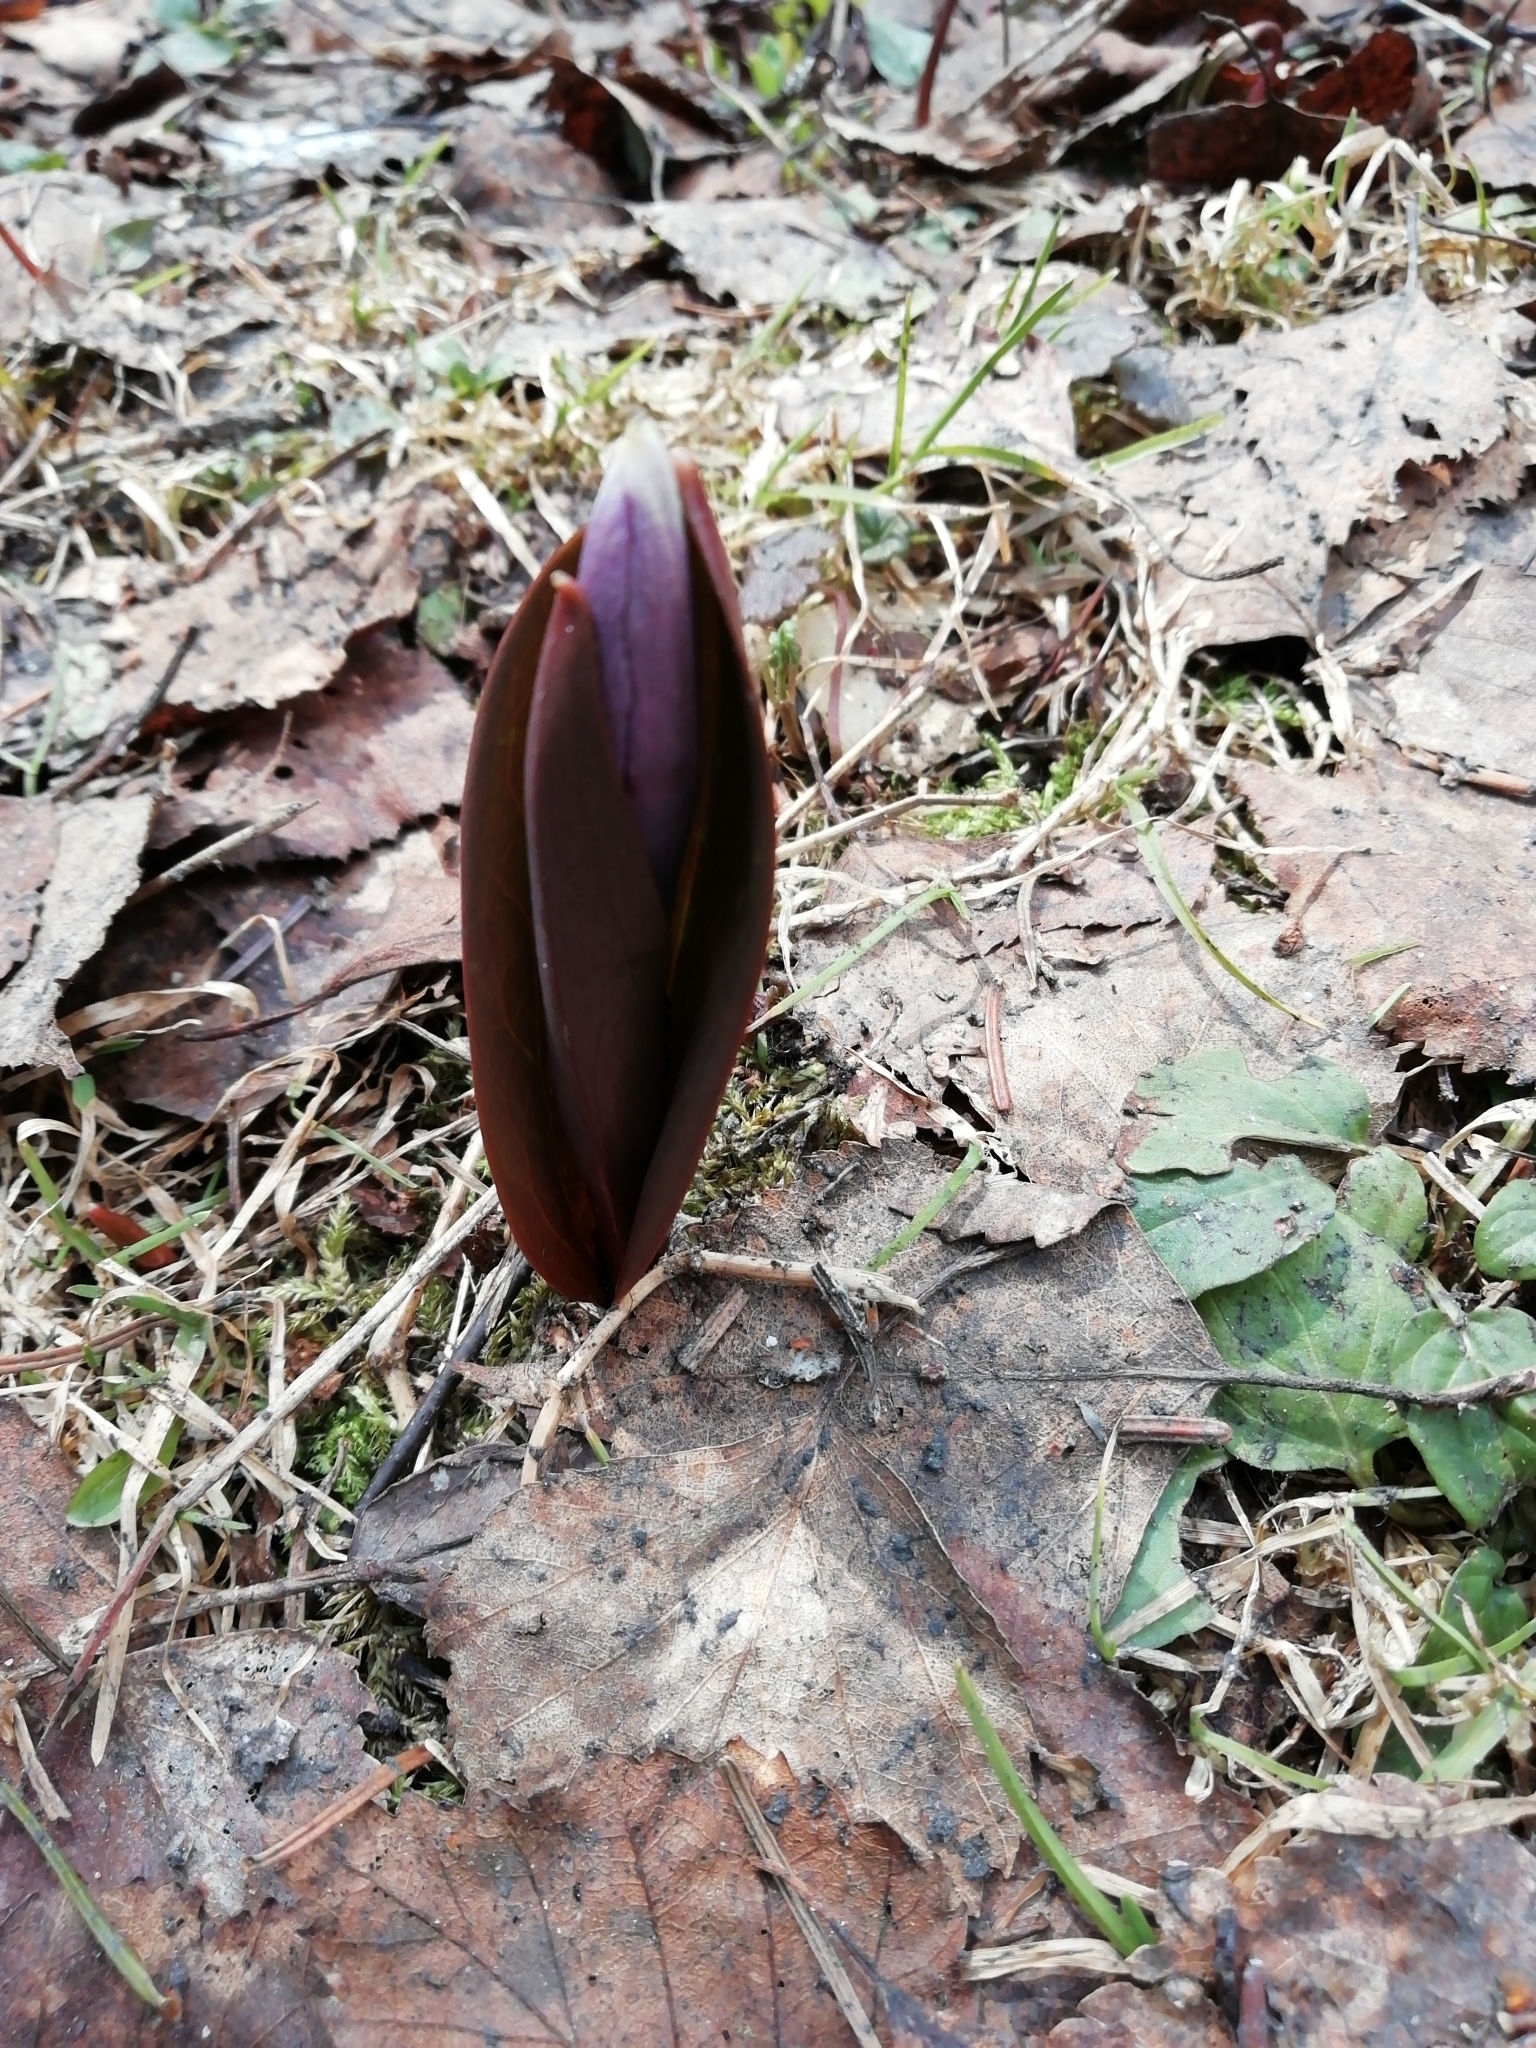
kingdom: Plantae
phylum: Tracheophyta
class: Liliopsida
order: Liliales
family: Liliaceae
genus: Erythronium
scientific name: Erythronium sibiricum
